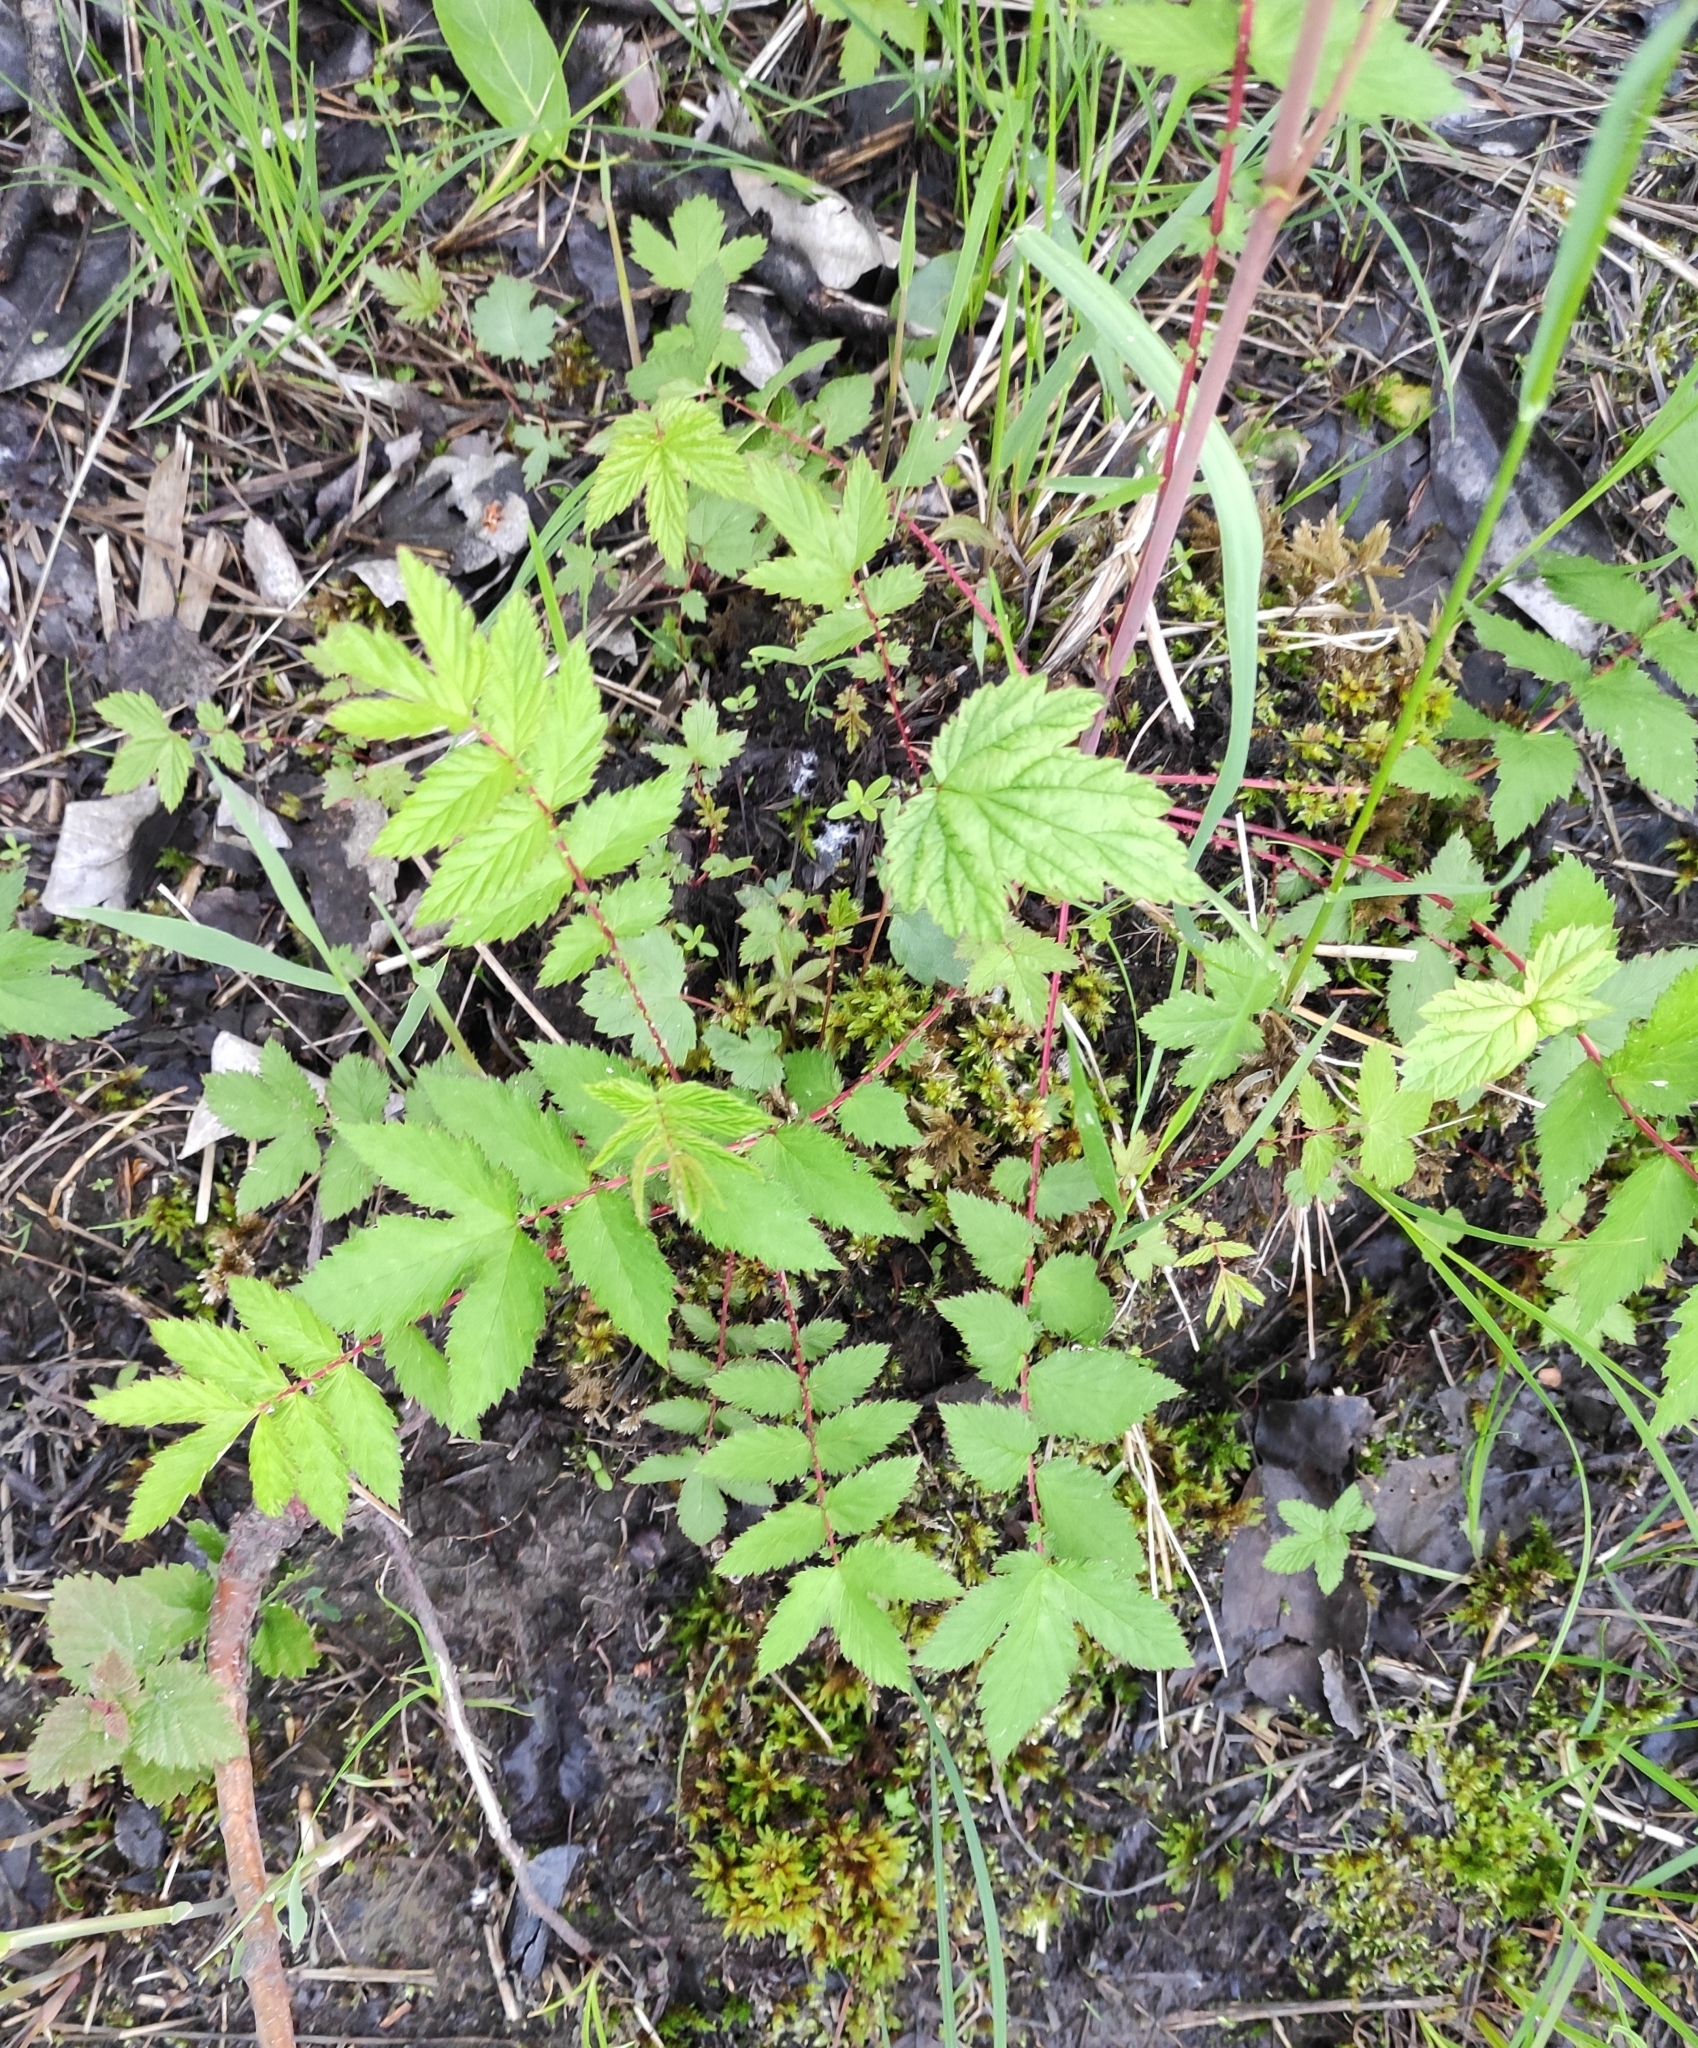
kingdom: Plantae
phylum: Tracheophyta
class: Magnoliopsida
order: Rosales
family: Rosaceae
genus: Filipendula
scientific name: Filipendula ulmaria
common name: Meadowsweet
